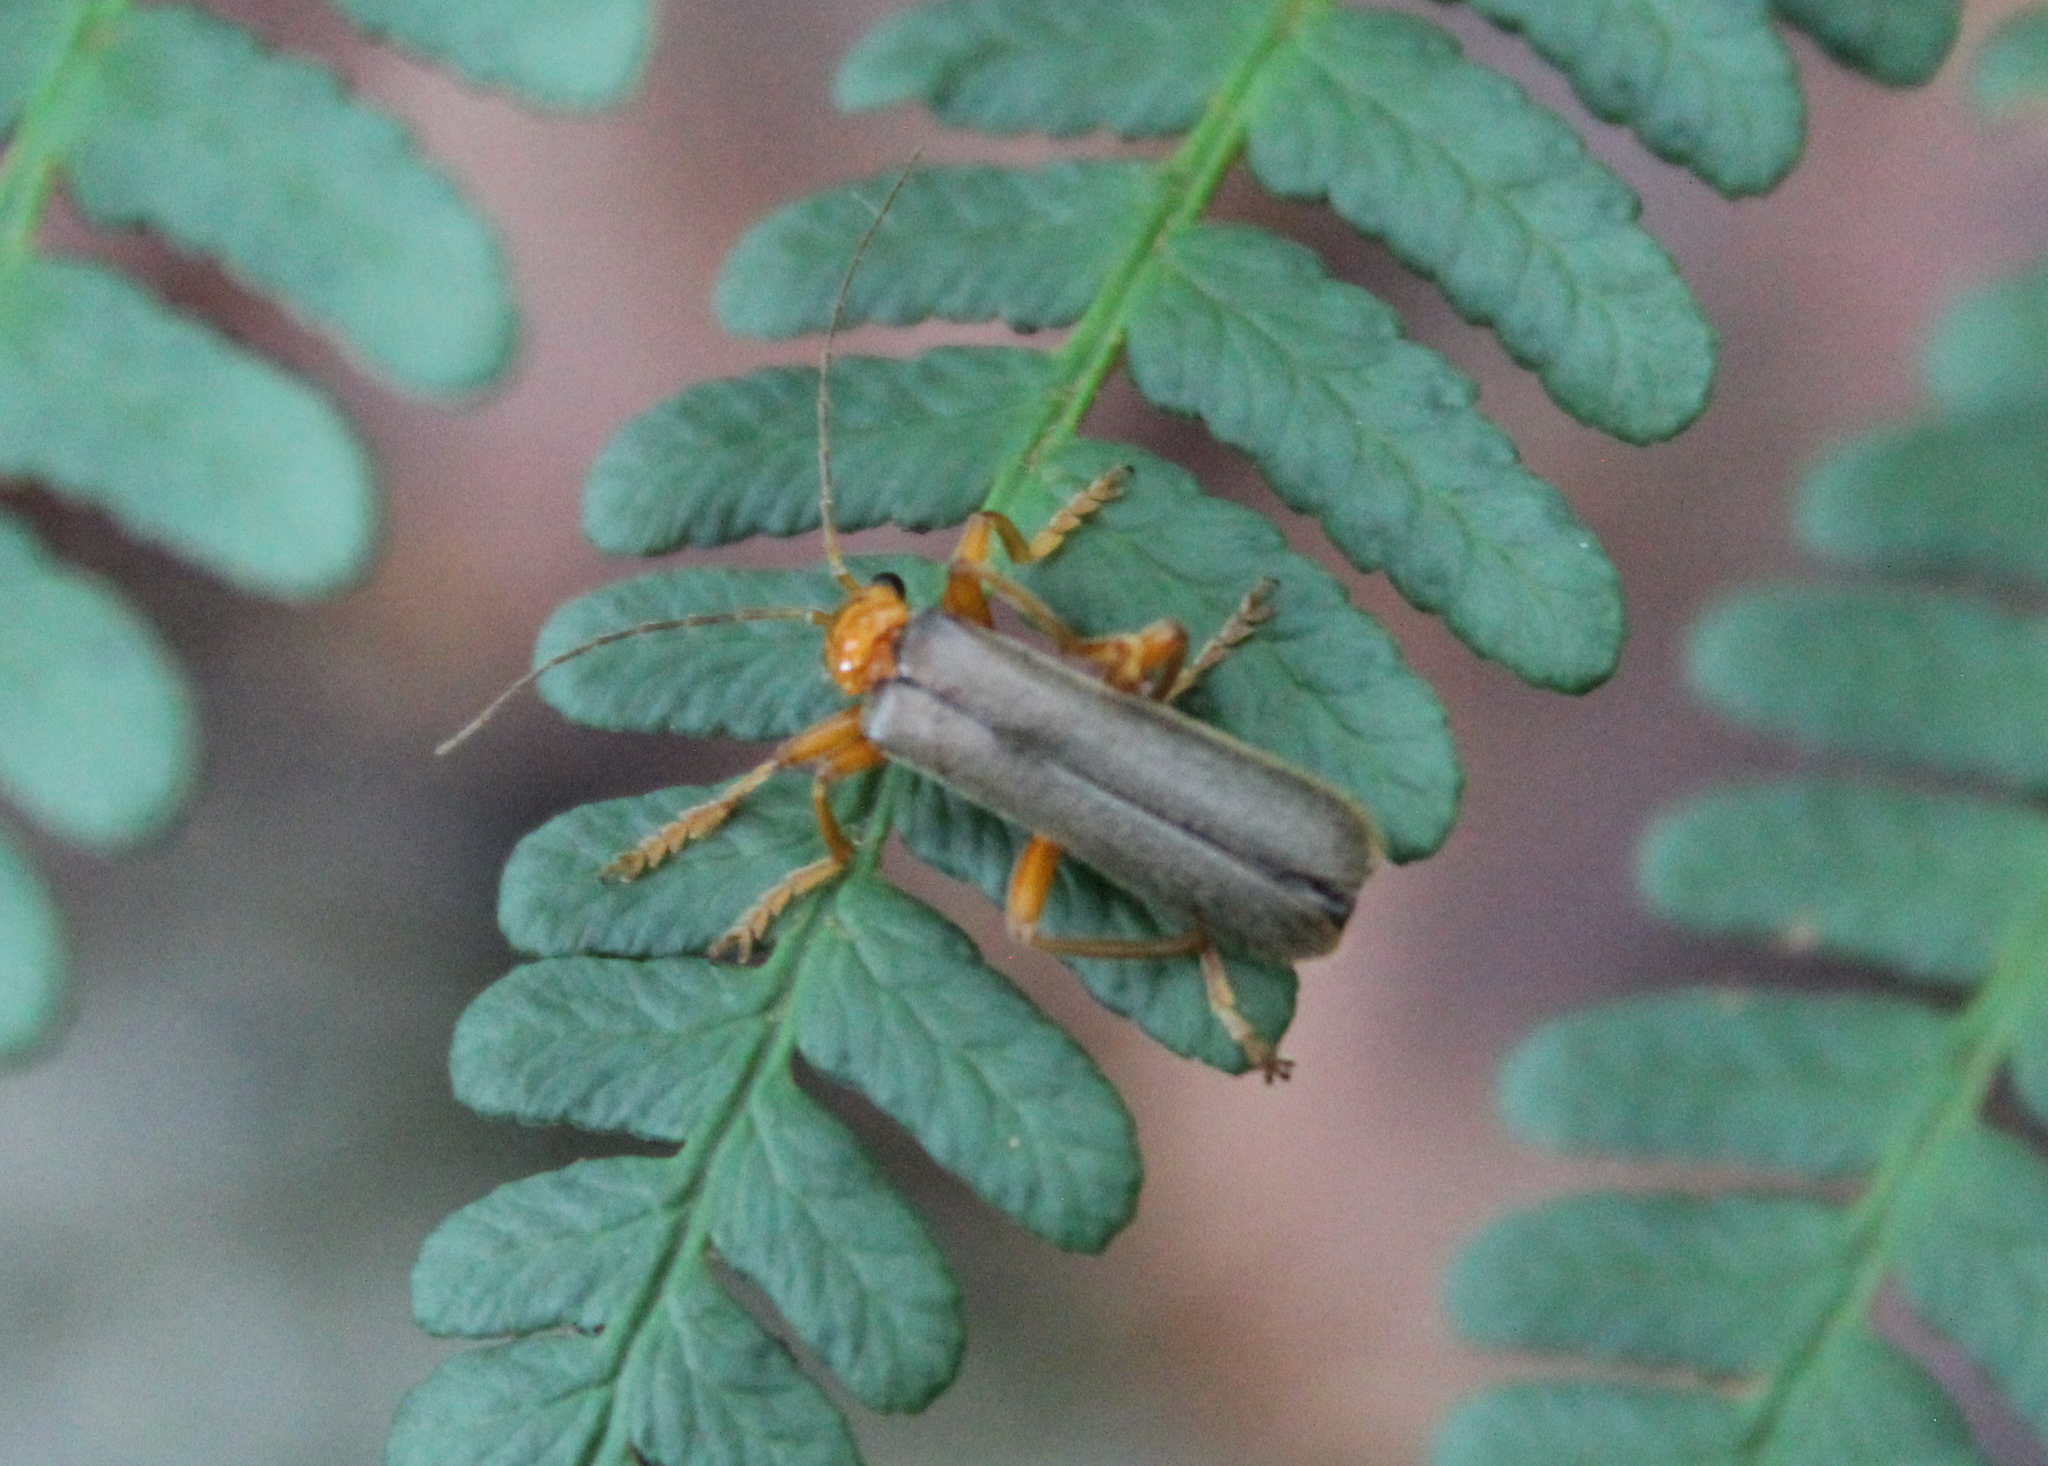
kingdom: Animalia
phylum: Arthropoda
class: Insecta
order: Coleoptera
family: Cantharidae
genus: Pacificanthia
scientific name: Pacificanthia rotundicollis
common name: Brown leatherwing beetle
